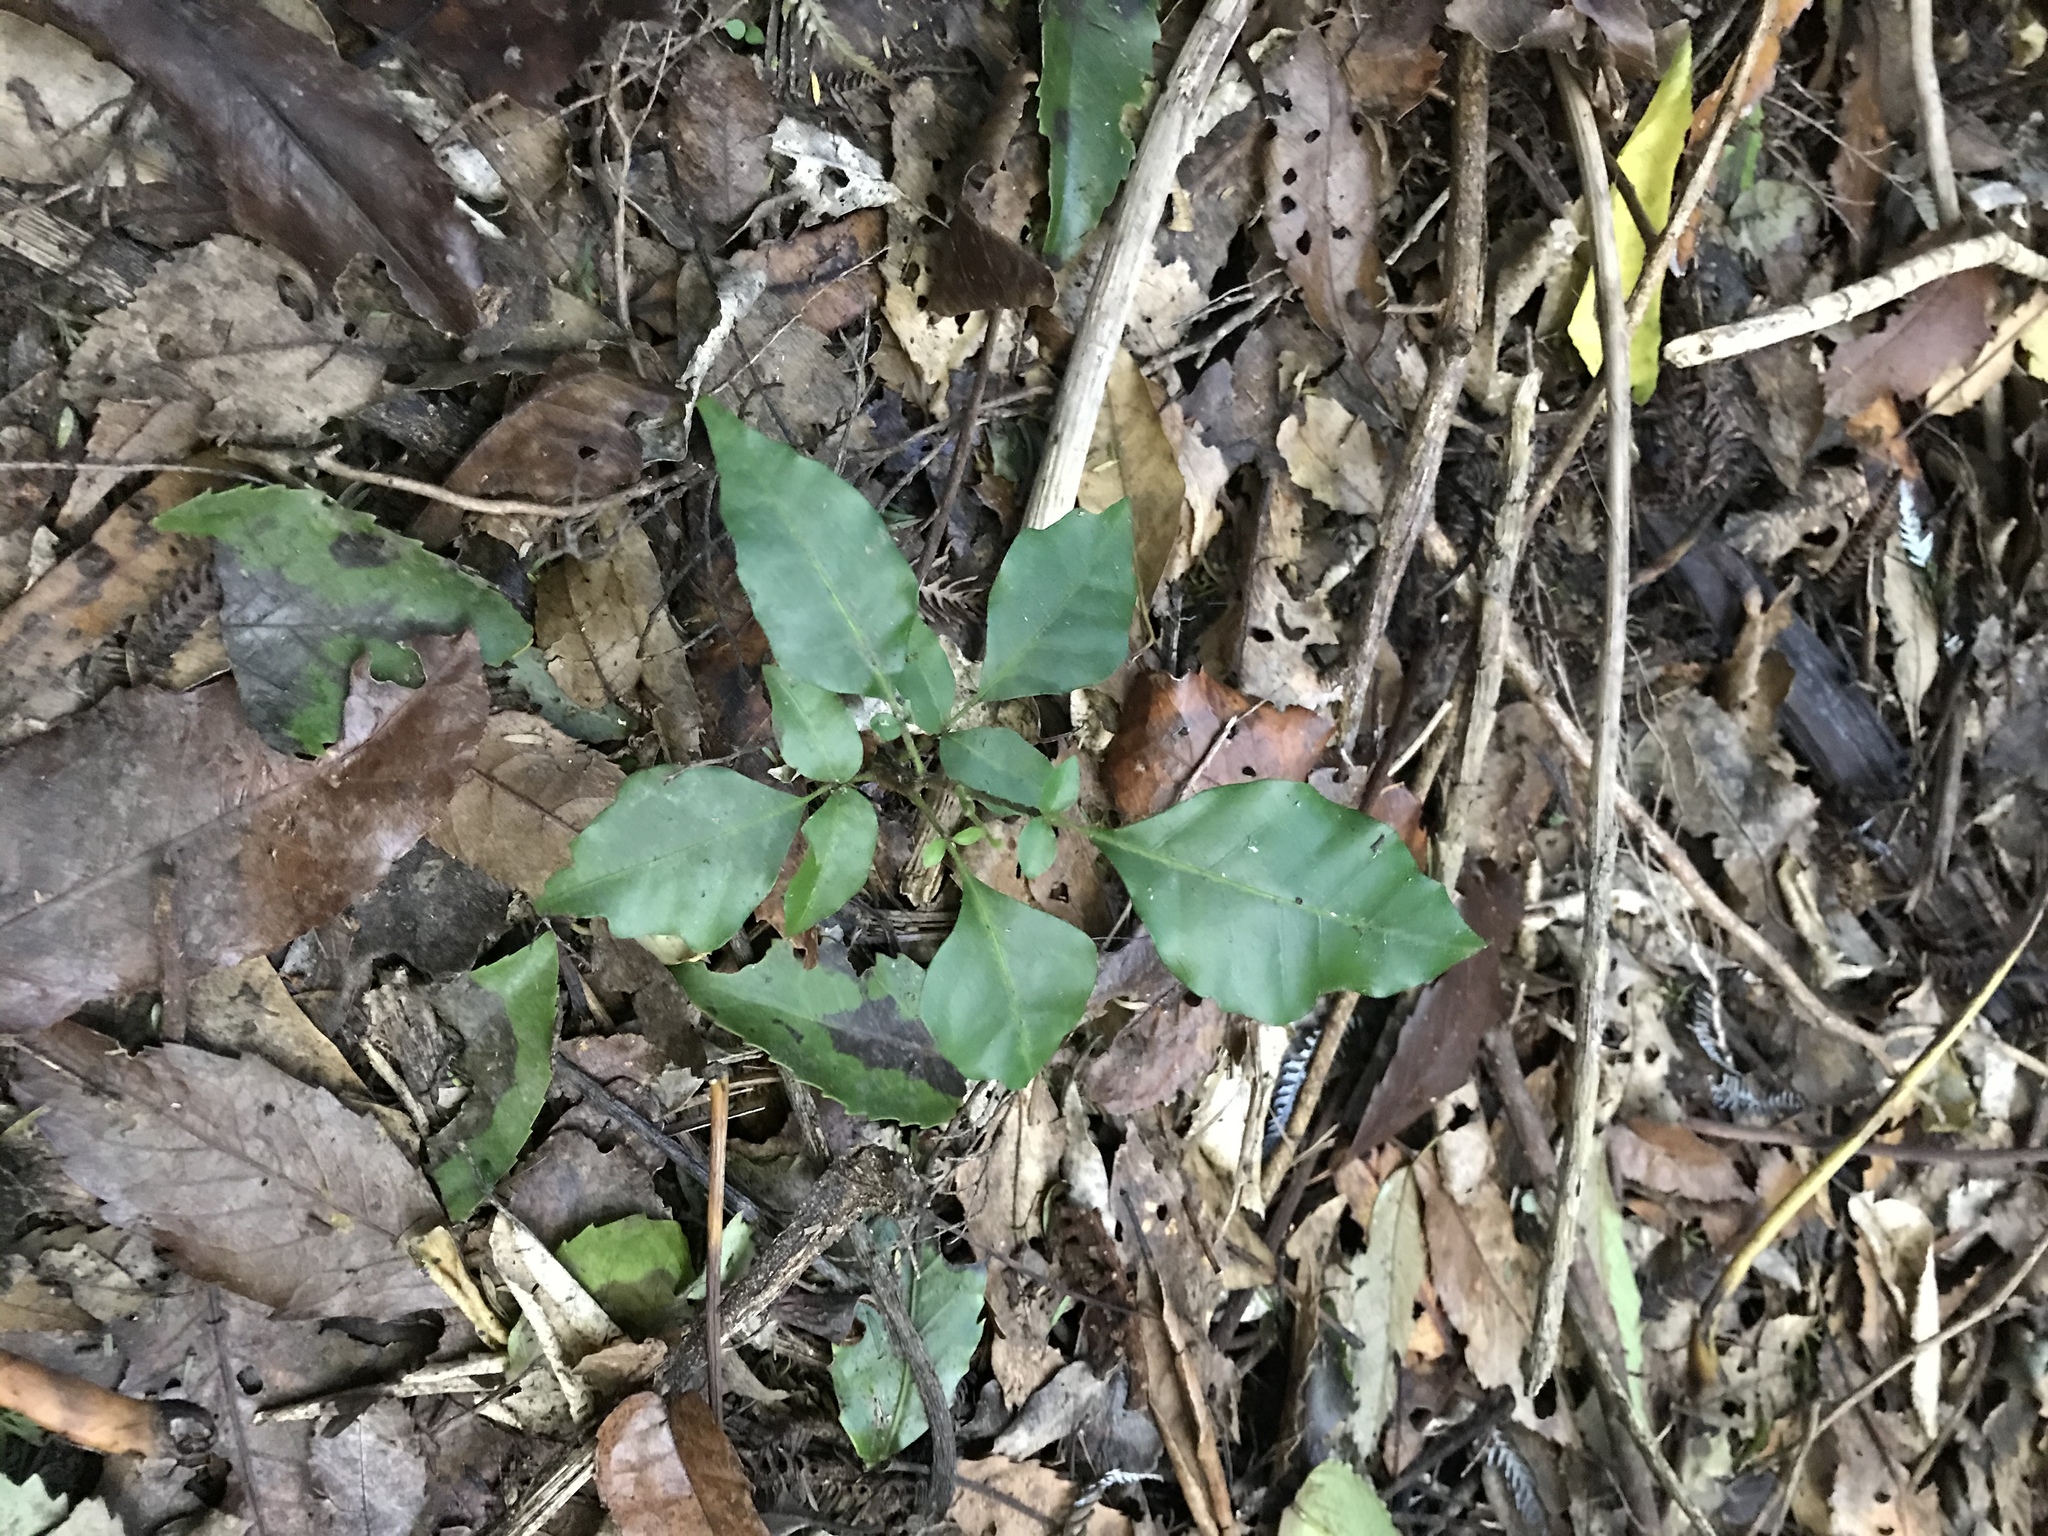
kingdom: Plantae
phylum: Tracheophyta
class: Magnoliopsida
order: Sapindales
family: Meliaceae
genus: Didymocheton
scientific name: Didymocheton spectabilis
